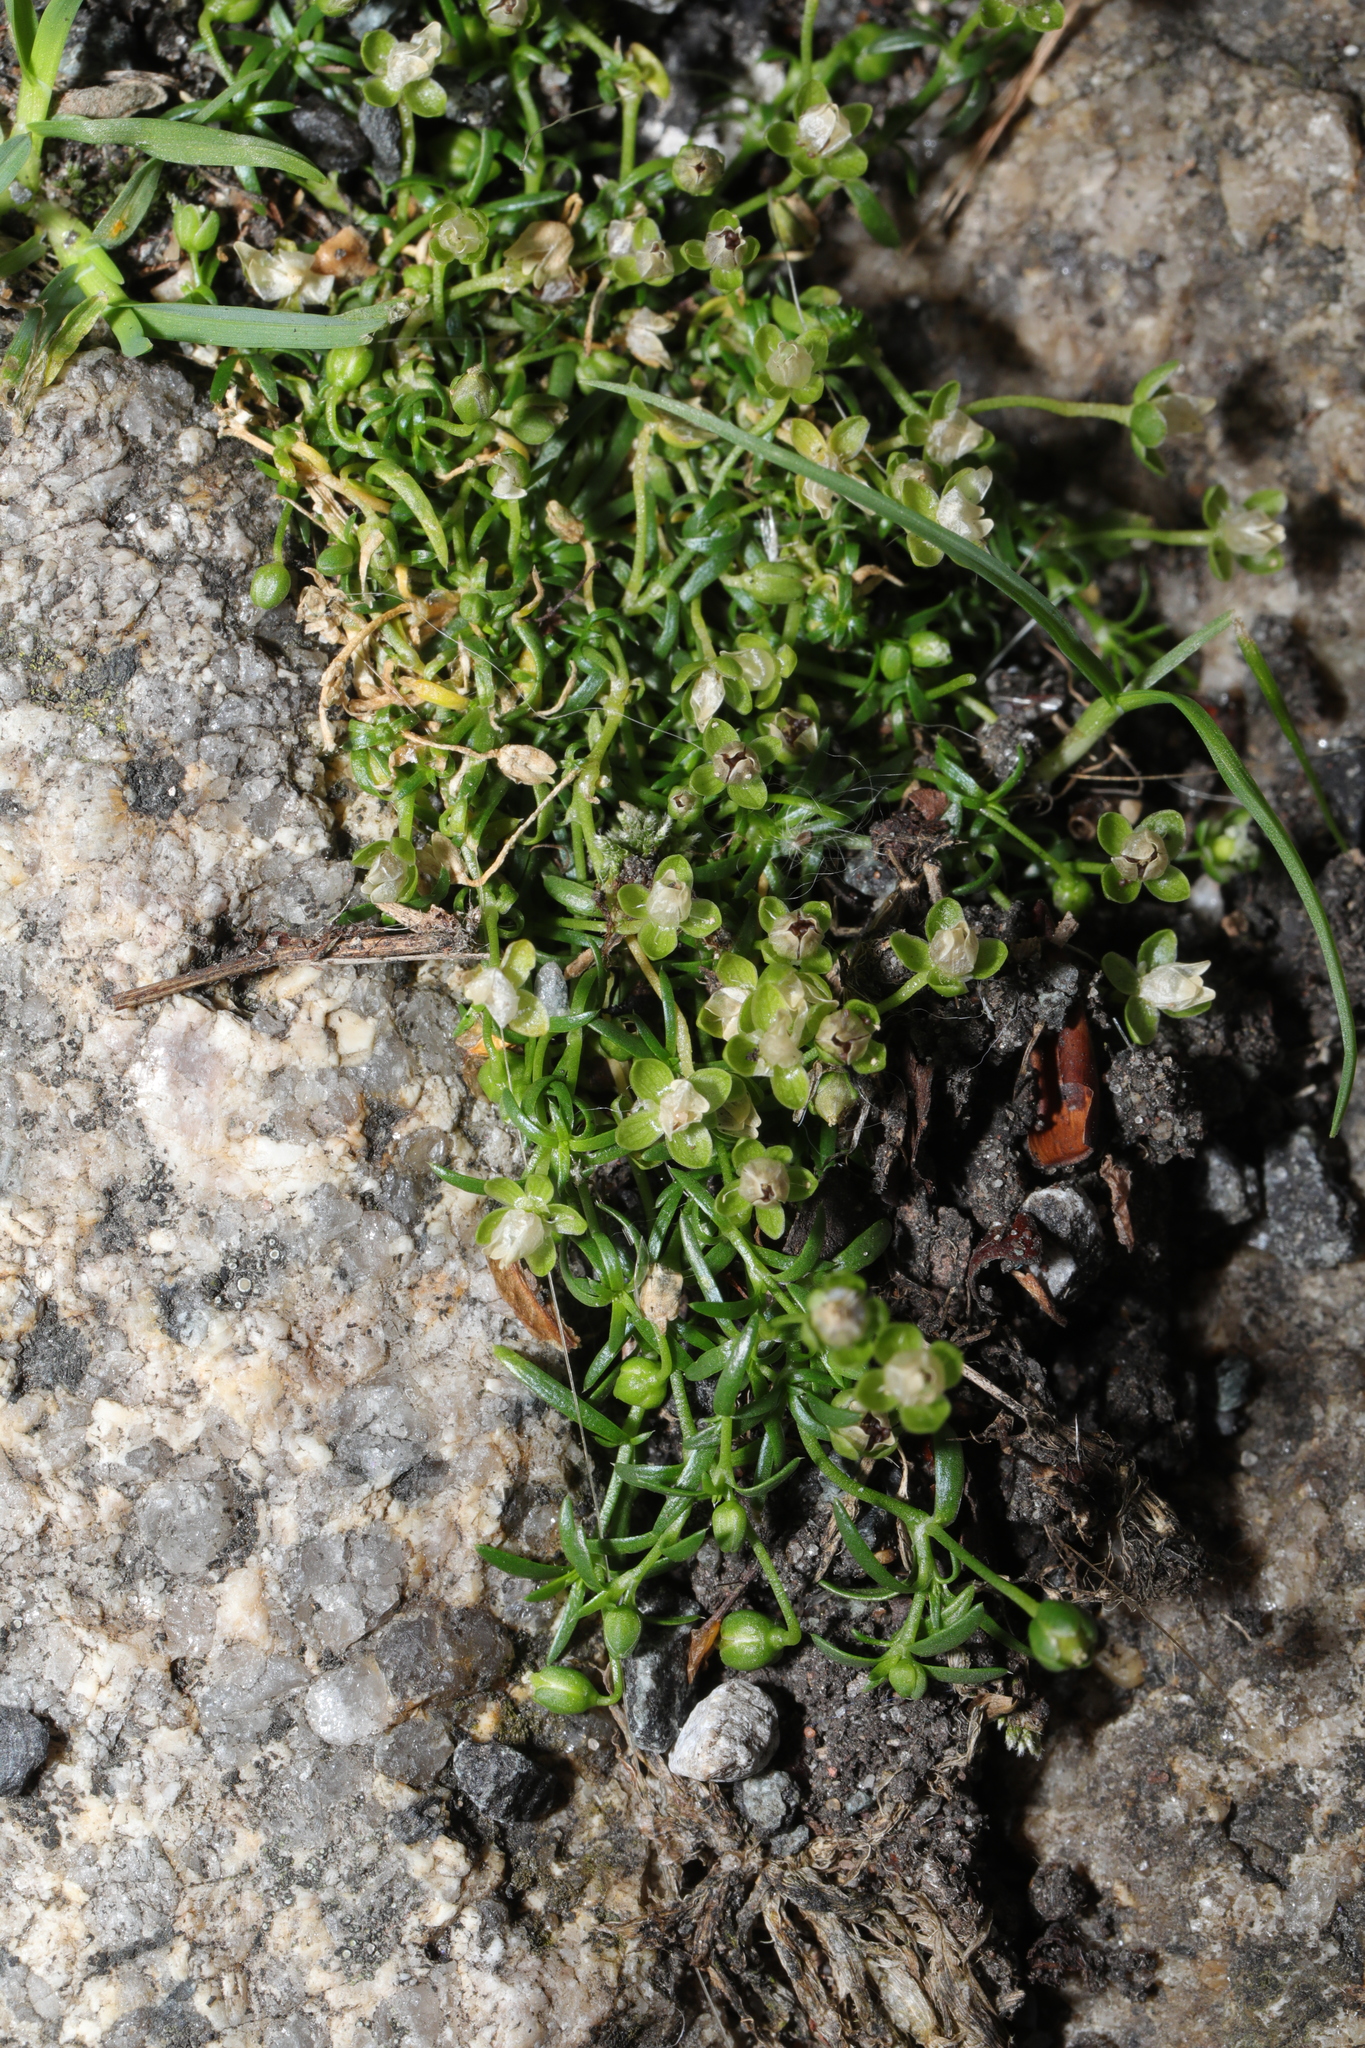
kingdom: Plantae
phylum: Tracheophyta
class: Magnoliopsida
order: Caryophyllales
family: Caryophyllaceae
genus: Sagina
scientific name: Sagina procumbens
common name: Procumbent pearlwort
